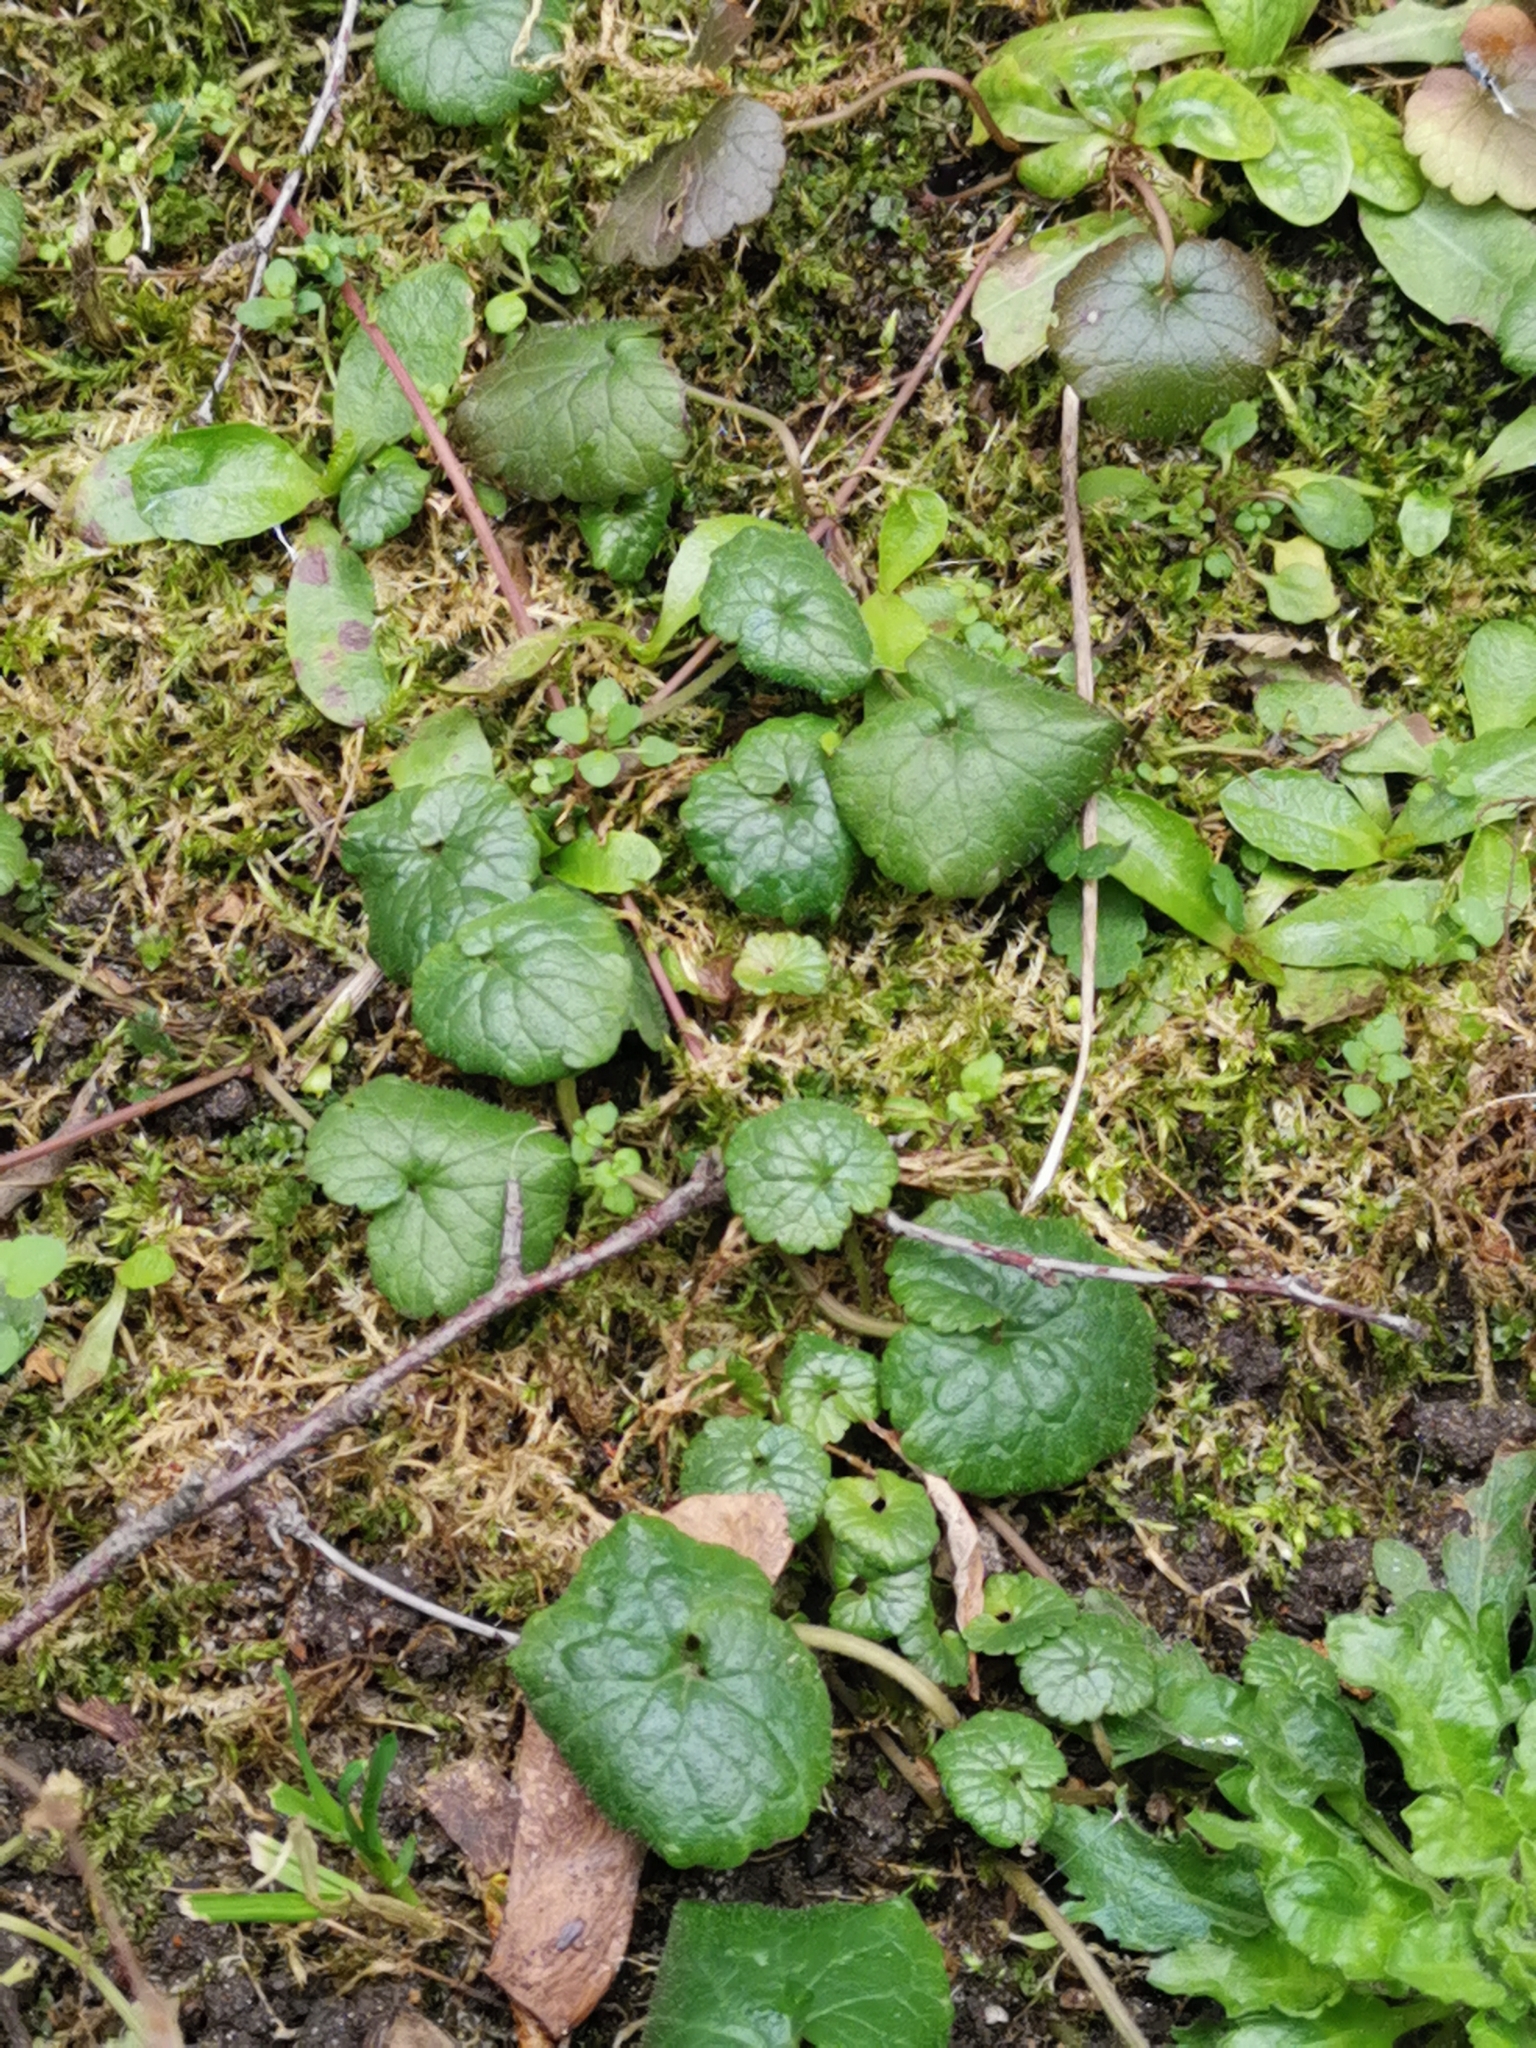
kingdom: Plantae
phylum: Tracheophyta
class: Magnoliopsida
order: Lamiales
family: Lamiaceae
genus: Glechoma
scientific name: Glechoma hederacea
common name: Ground ivy
